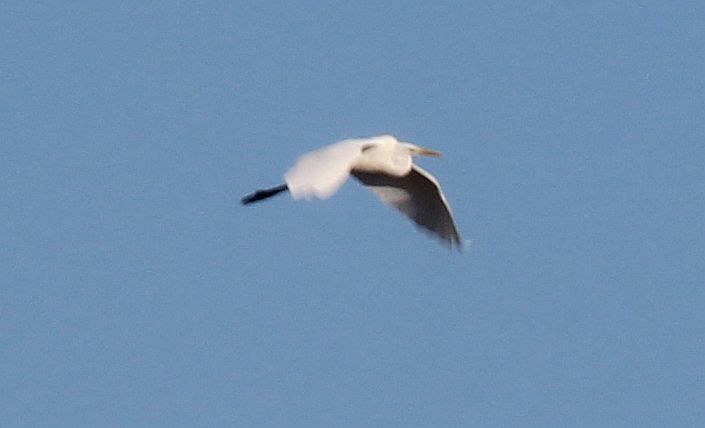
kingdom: Animalia
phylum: Chordata
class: Aves
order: Pelecaniformes
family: Ardeidae
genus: Ardea
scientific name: Ardea alba
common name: Great egret
